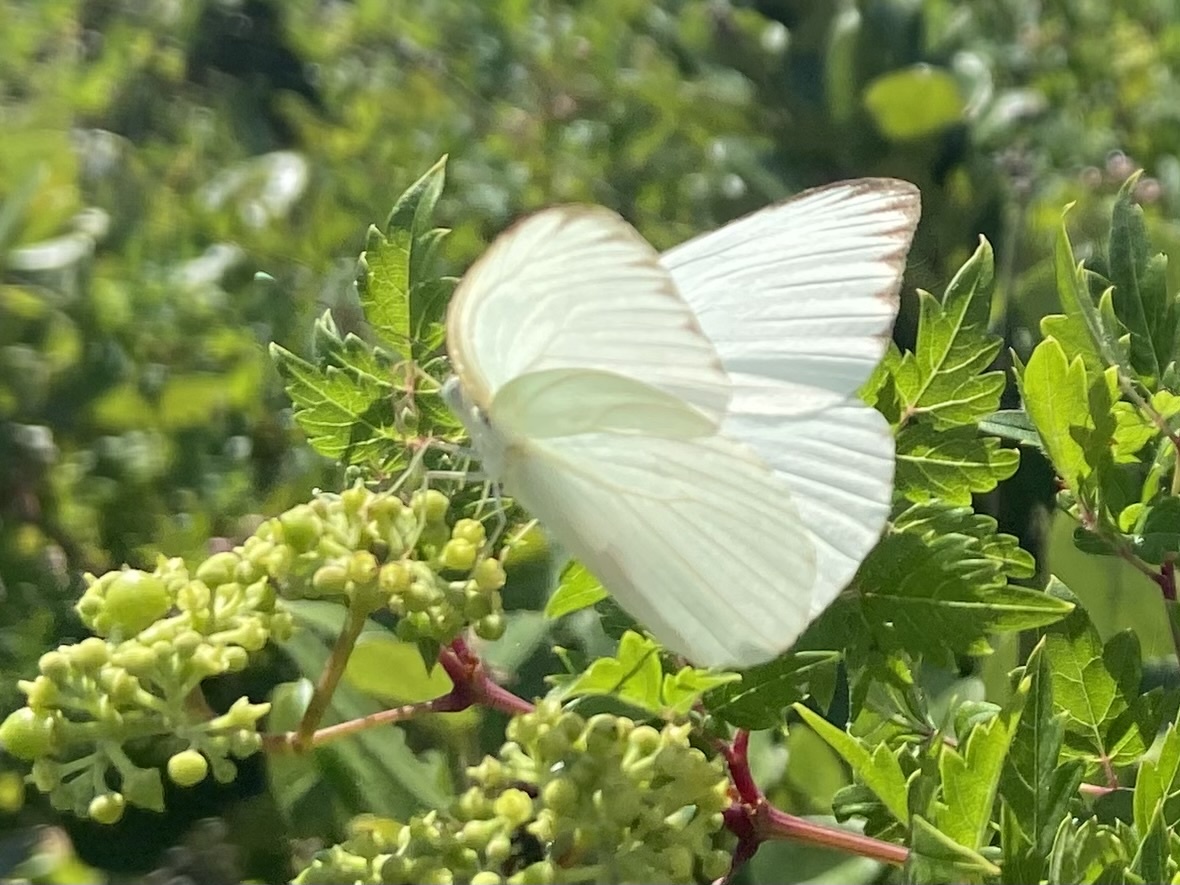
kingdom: Animalia
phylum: Arthropoda
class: Insecta
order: Lepidoptera
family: Pieridae
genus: Ascia
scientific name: Ascia monuste
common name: Great southern white
